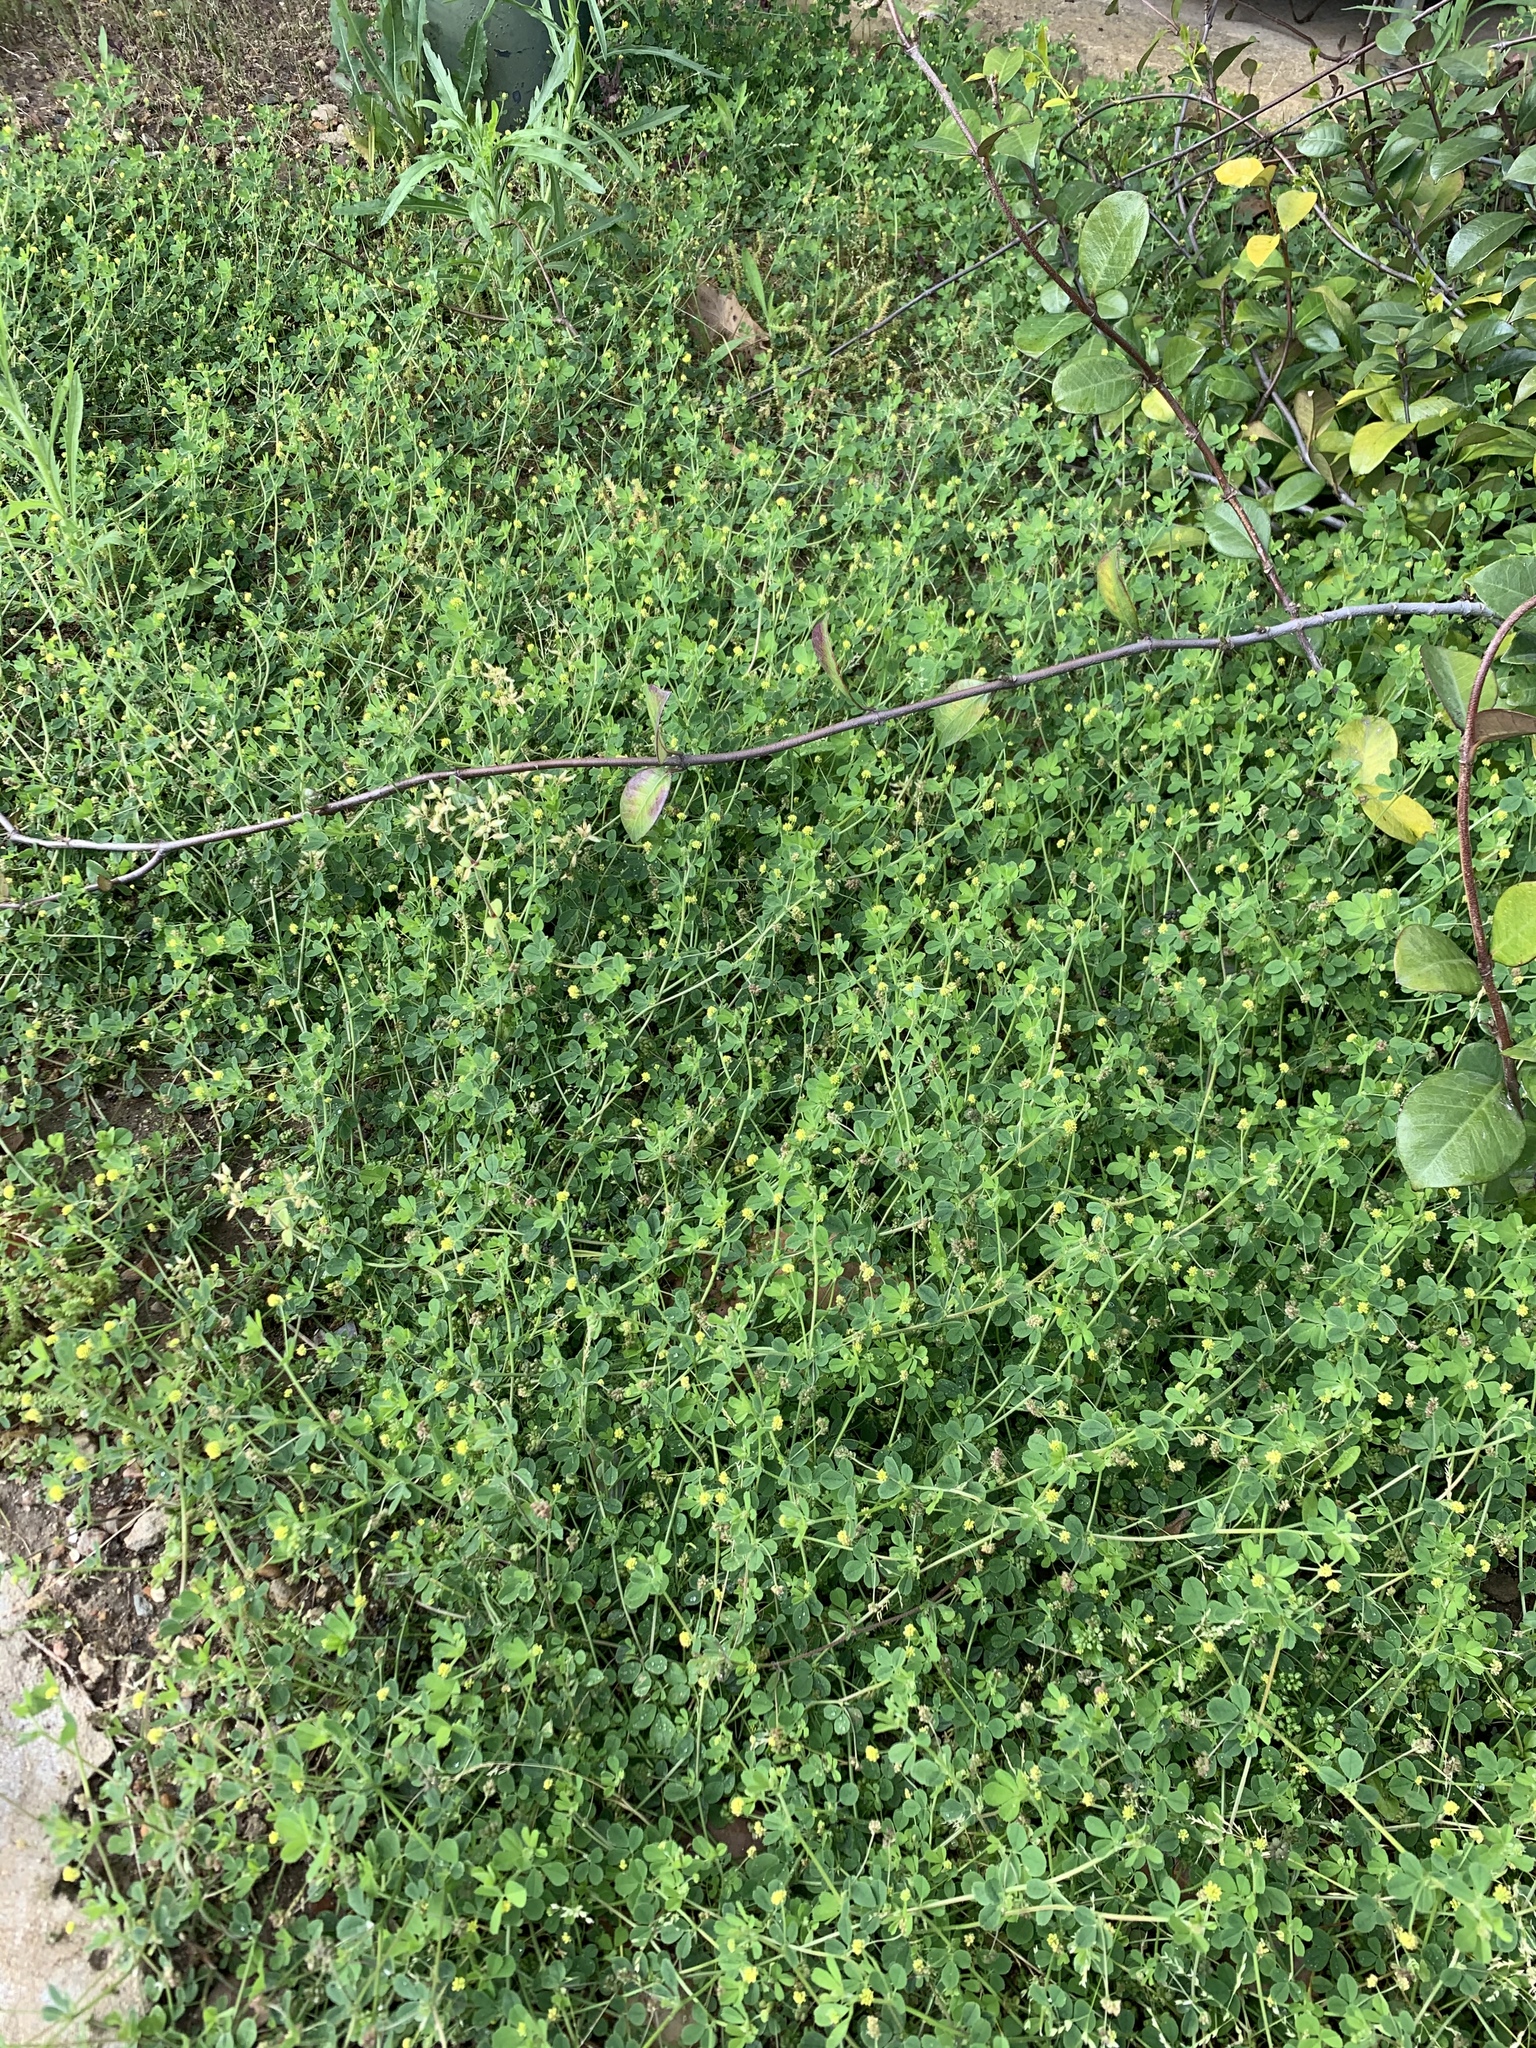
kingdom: Plantae
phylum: Tracheophyta
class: Magnoliopsida
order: Fabales
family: Fabaceae
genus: Medicago
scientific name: Medicago lupulina
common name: Black medick
